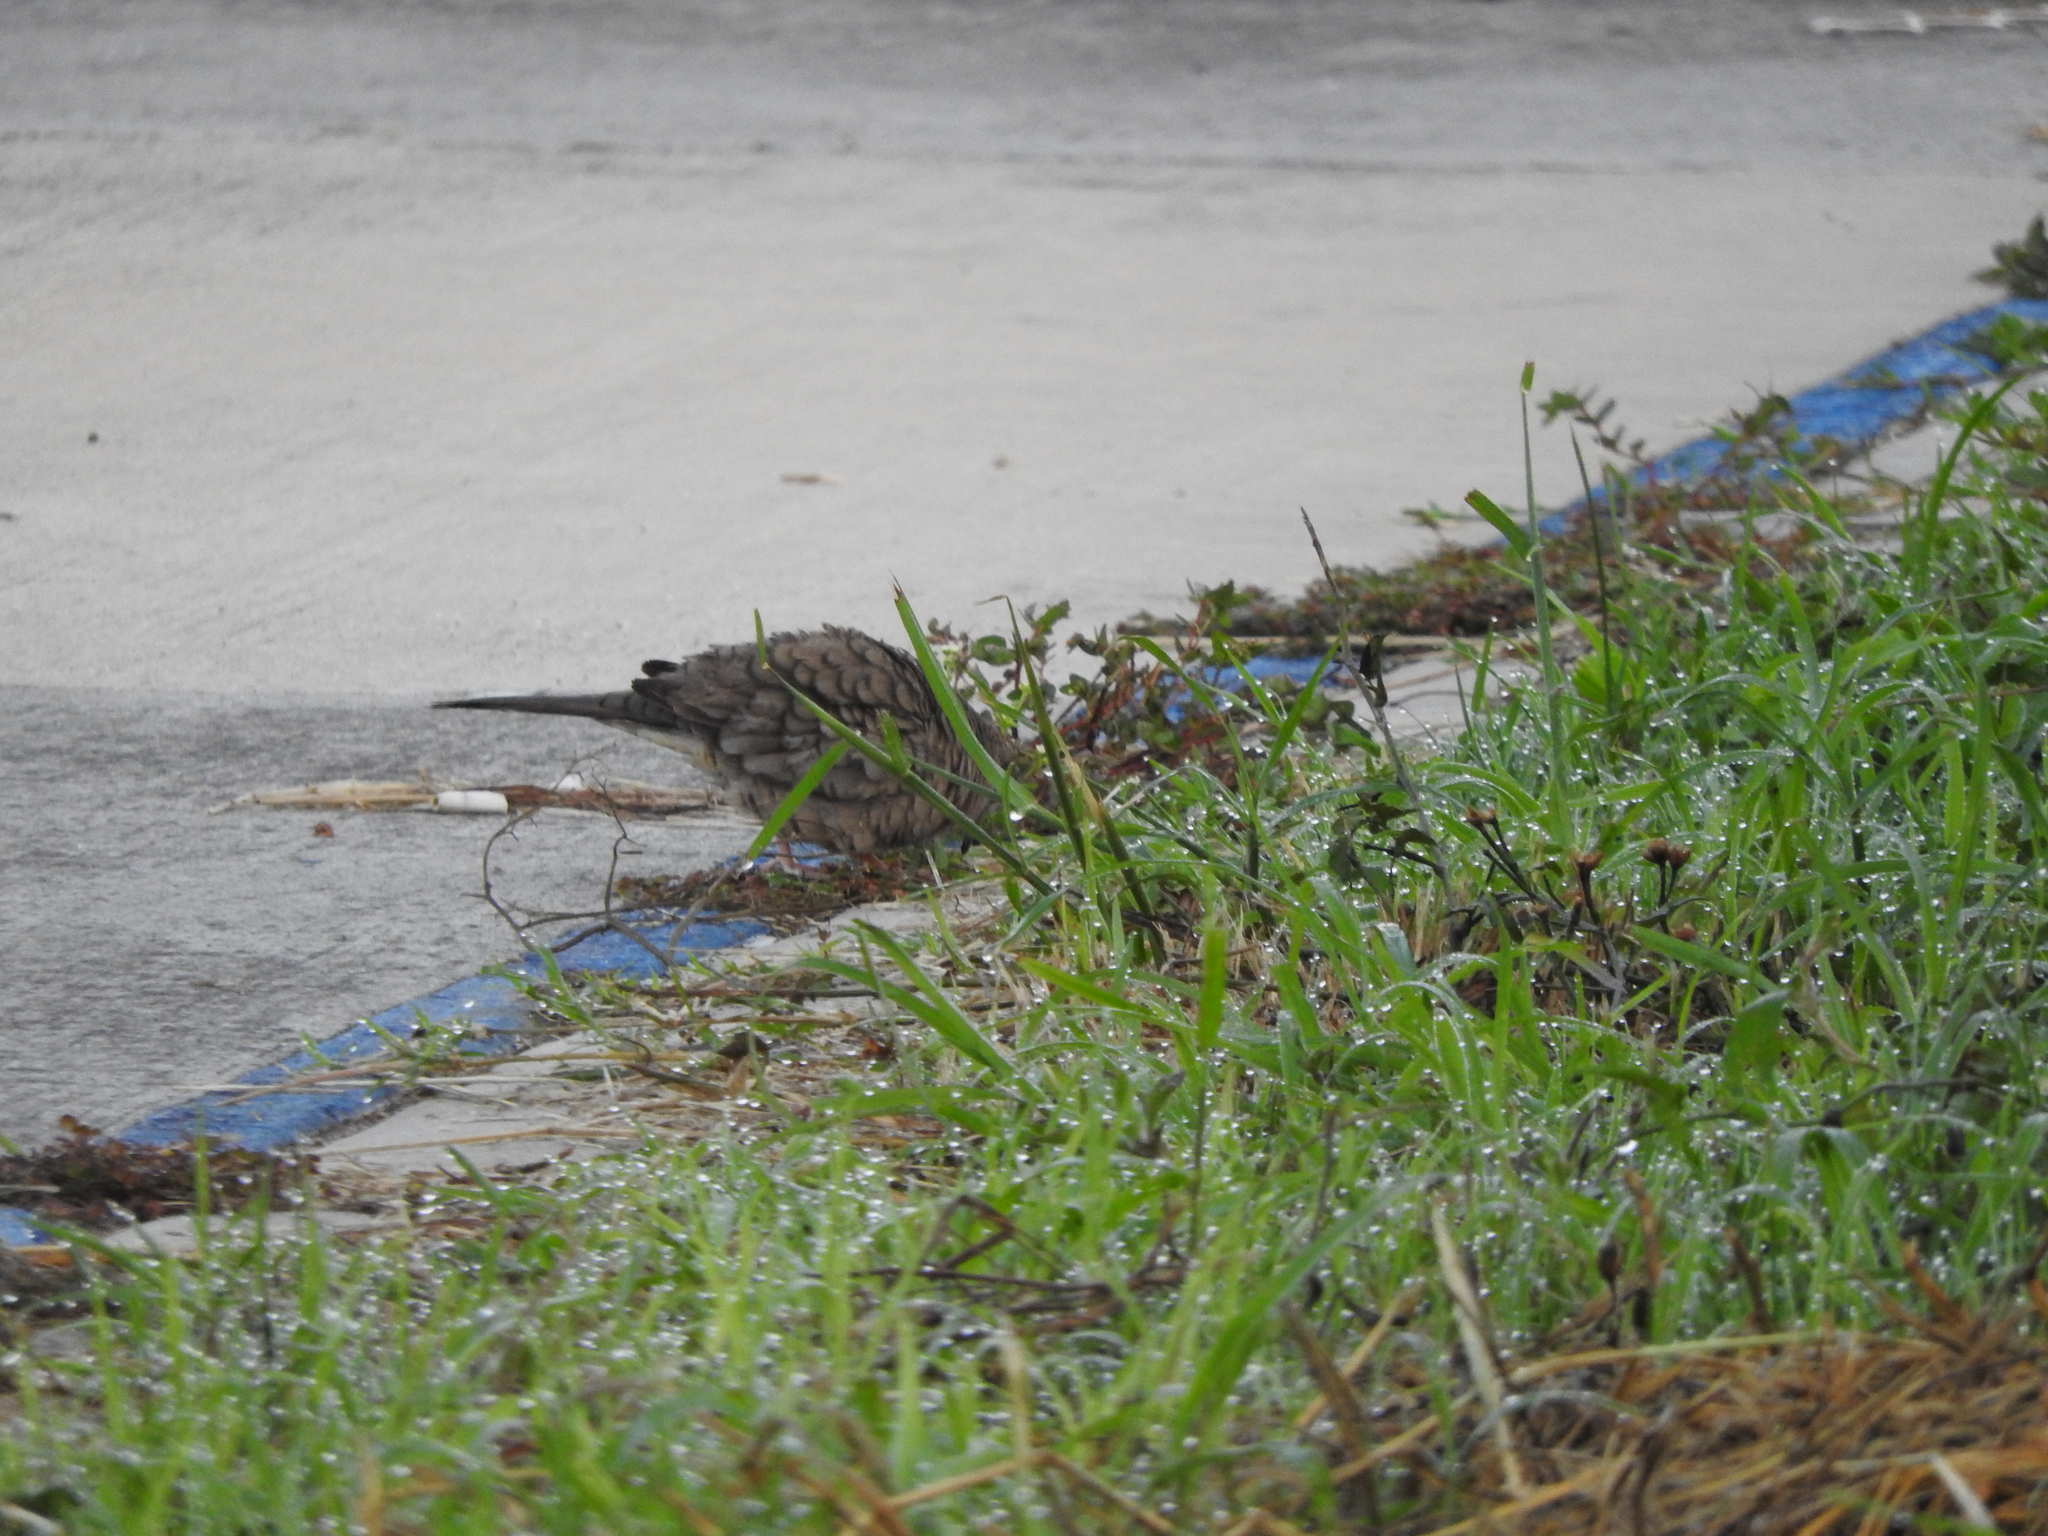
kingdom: Animalia
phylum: Chordata
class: Aves
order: Columbiformes
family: Columbidae
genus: Columbina
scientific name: Columbina inca
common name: Inca dove
